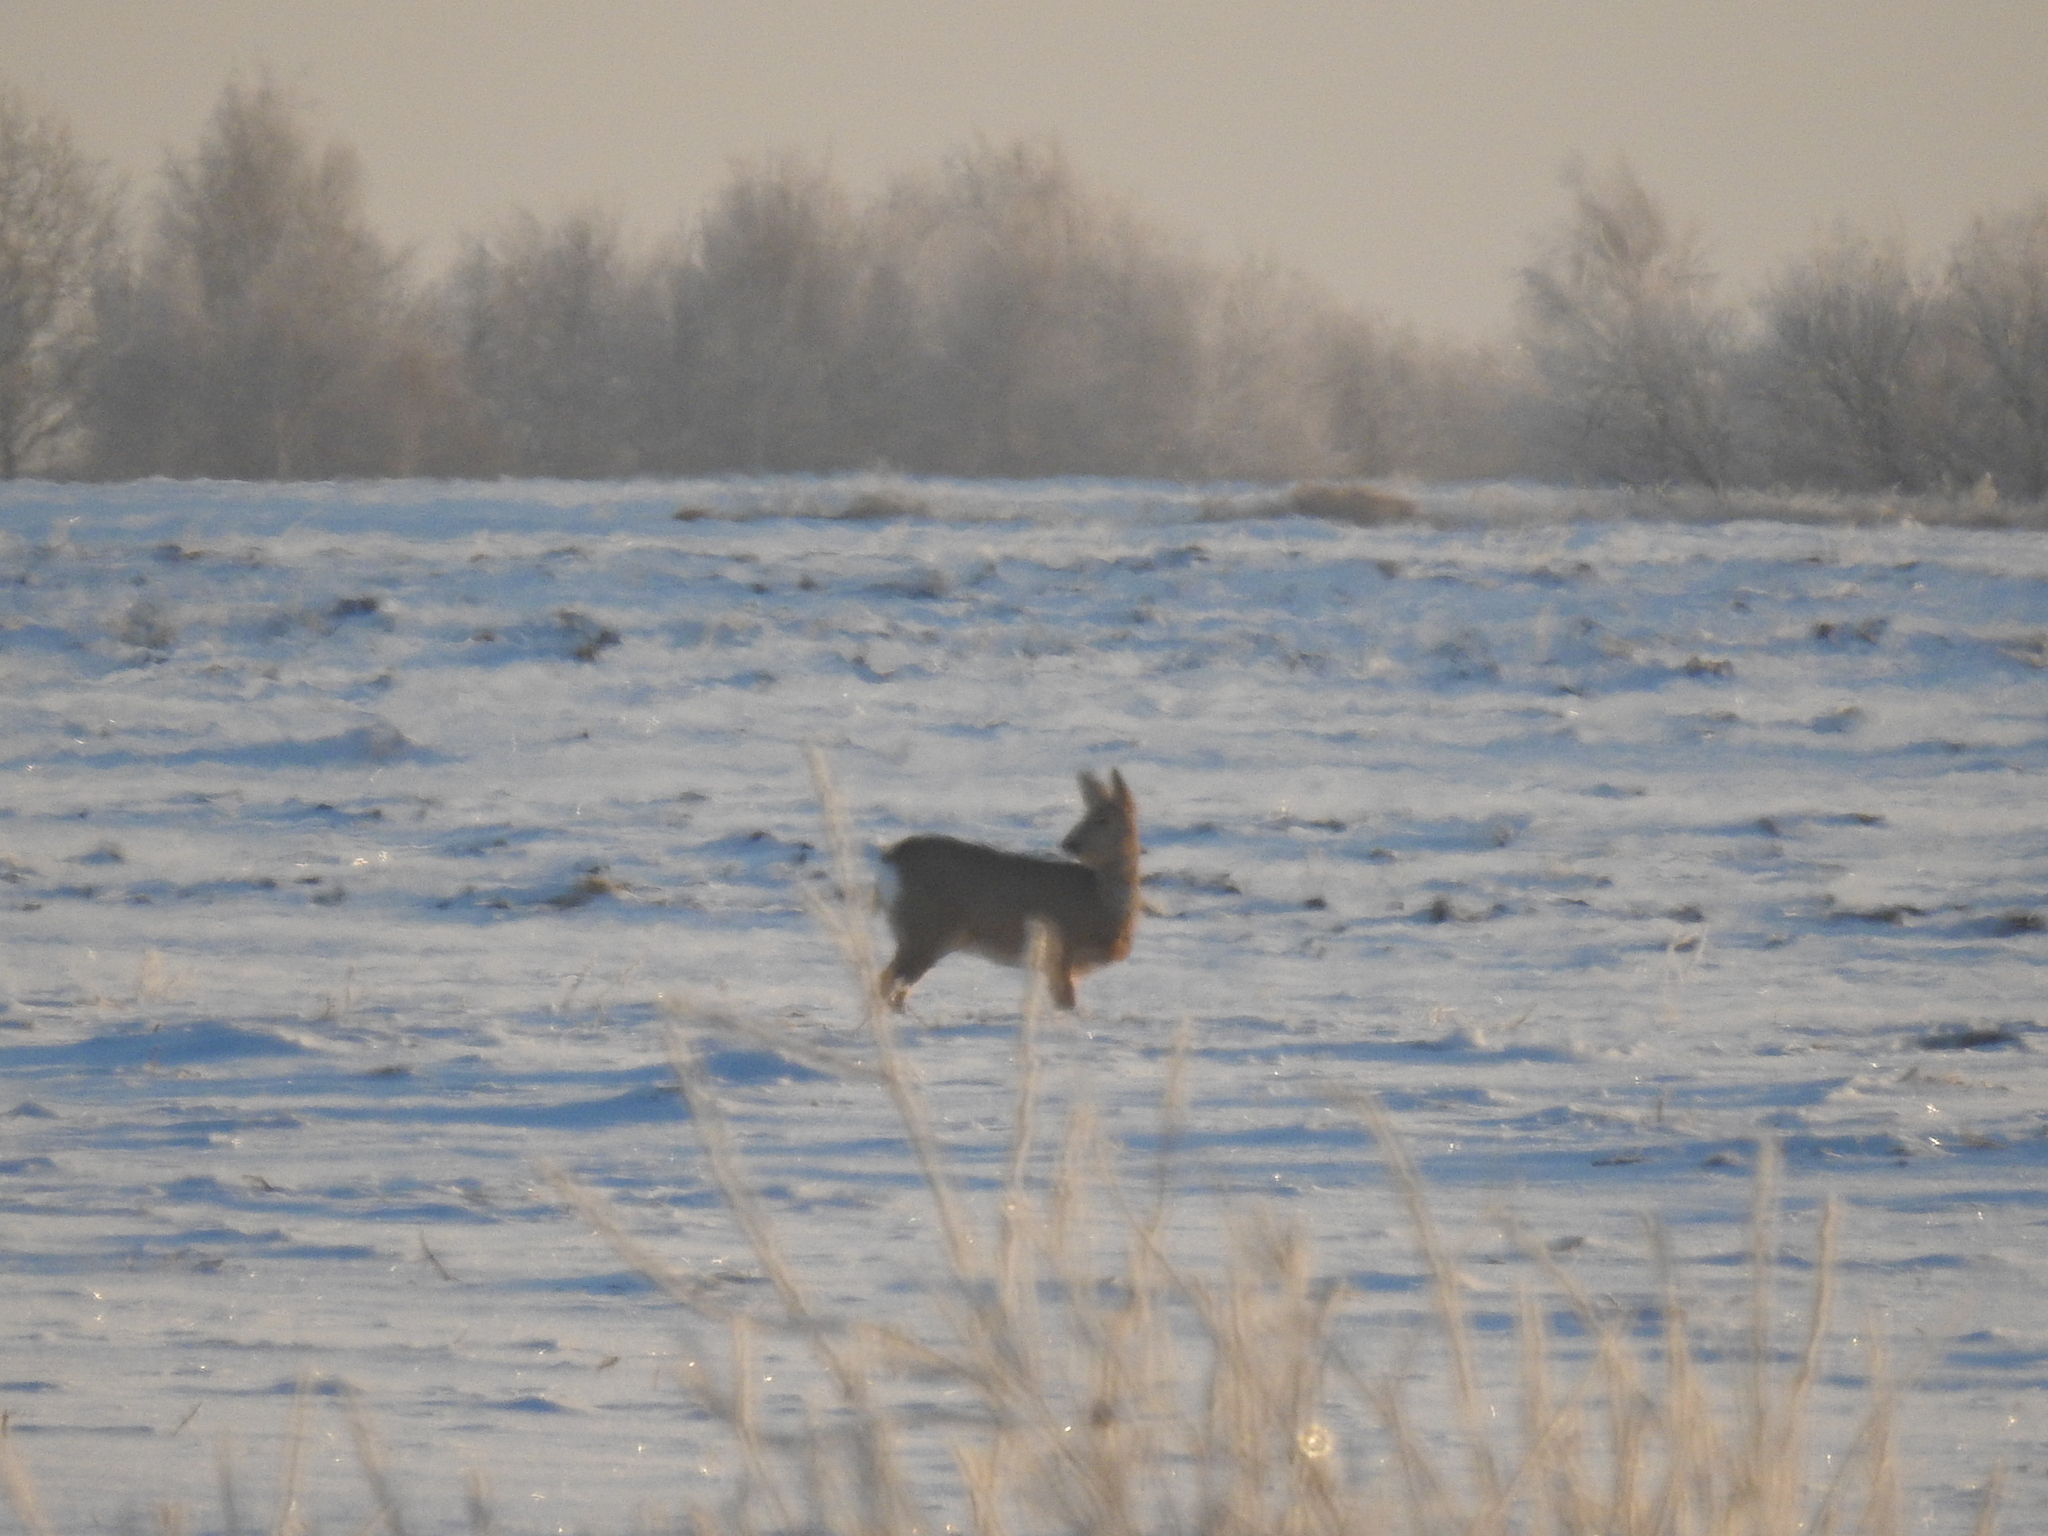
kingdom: Animalia
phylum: Chordata
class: Mammalia
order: Artiodactyla
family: Cervidae
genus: Capreolus
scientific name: Capreolus pygargus
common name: Siberian roe
